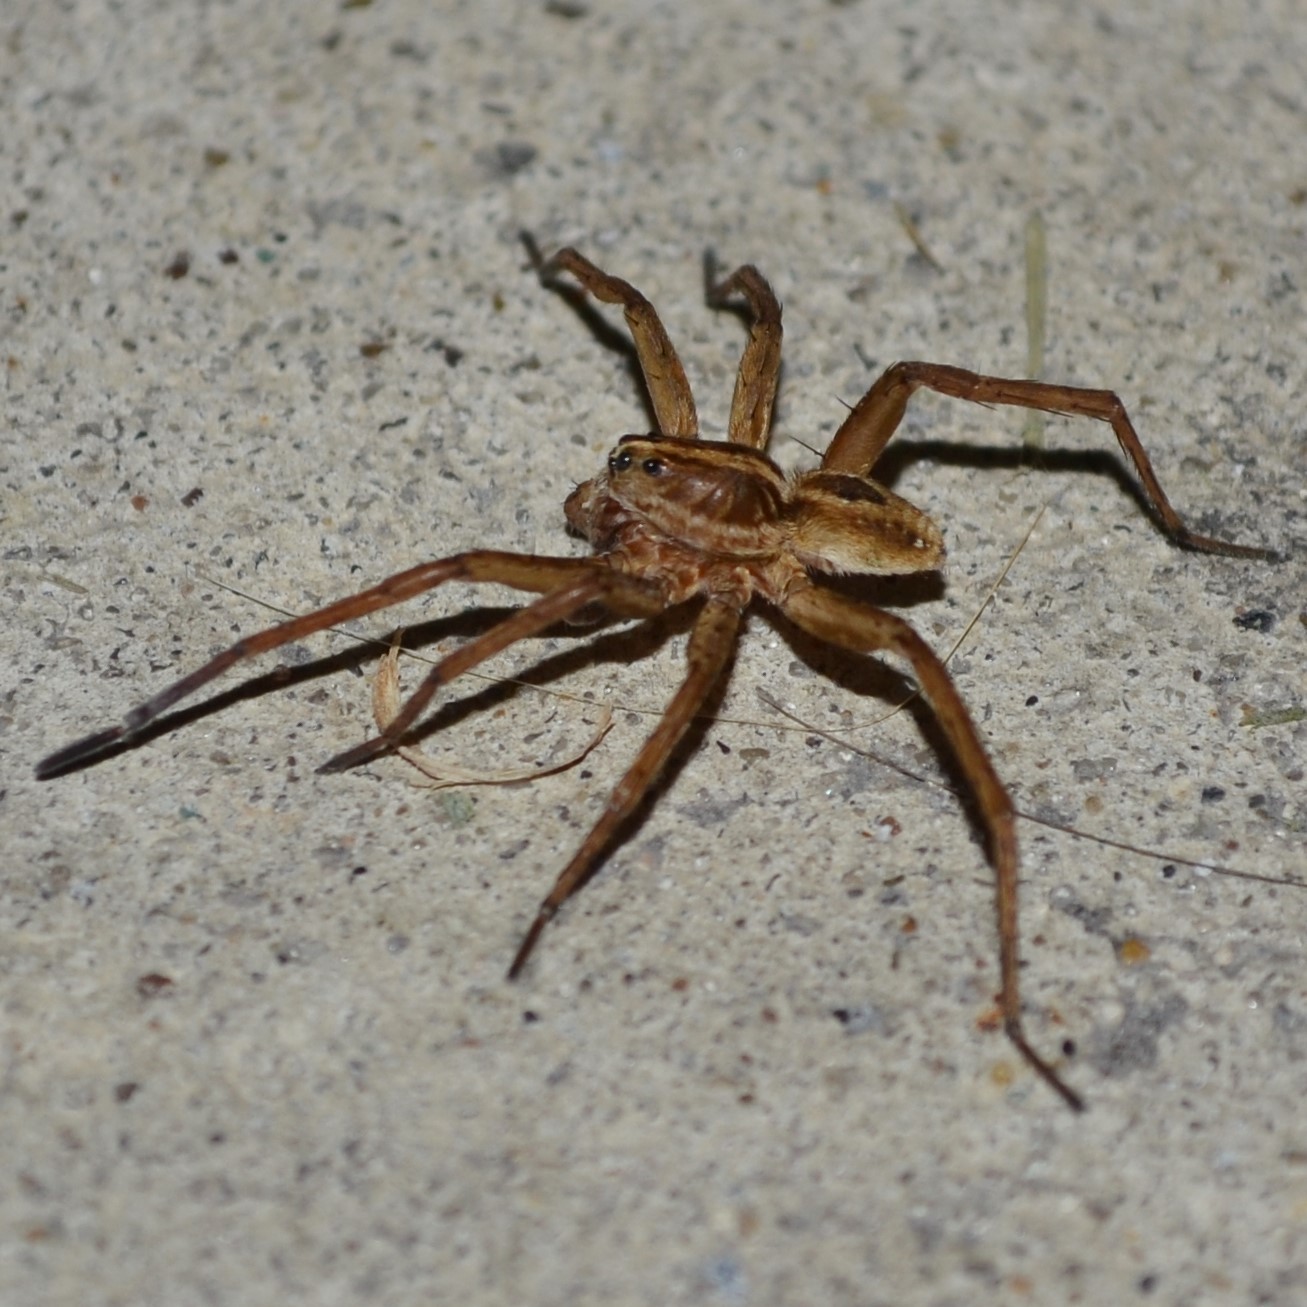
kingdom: Animalia
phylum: Arthropoda
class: Arachnida
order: Araneae
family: Lycosidae
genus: Tigrosa
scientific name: Tigrosa annexa
